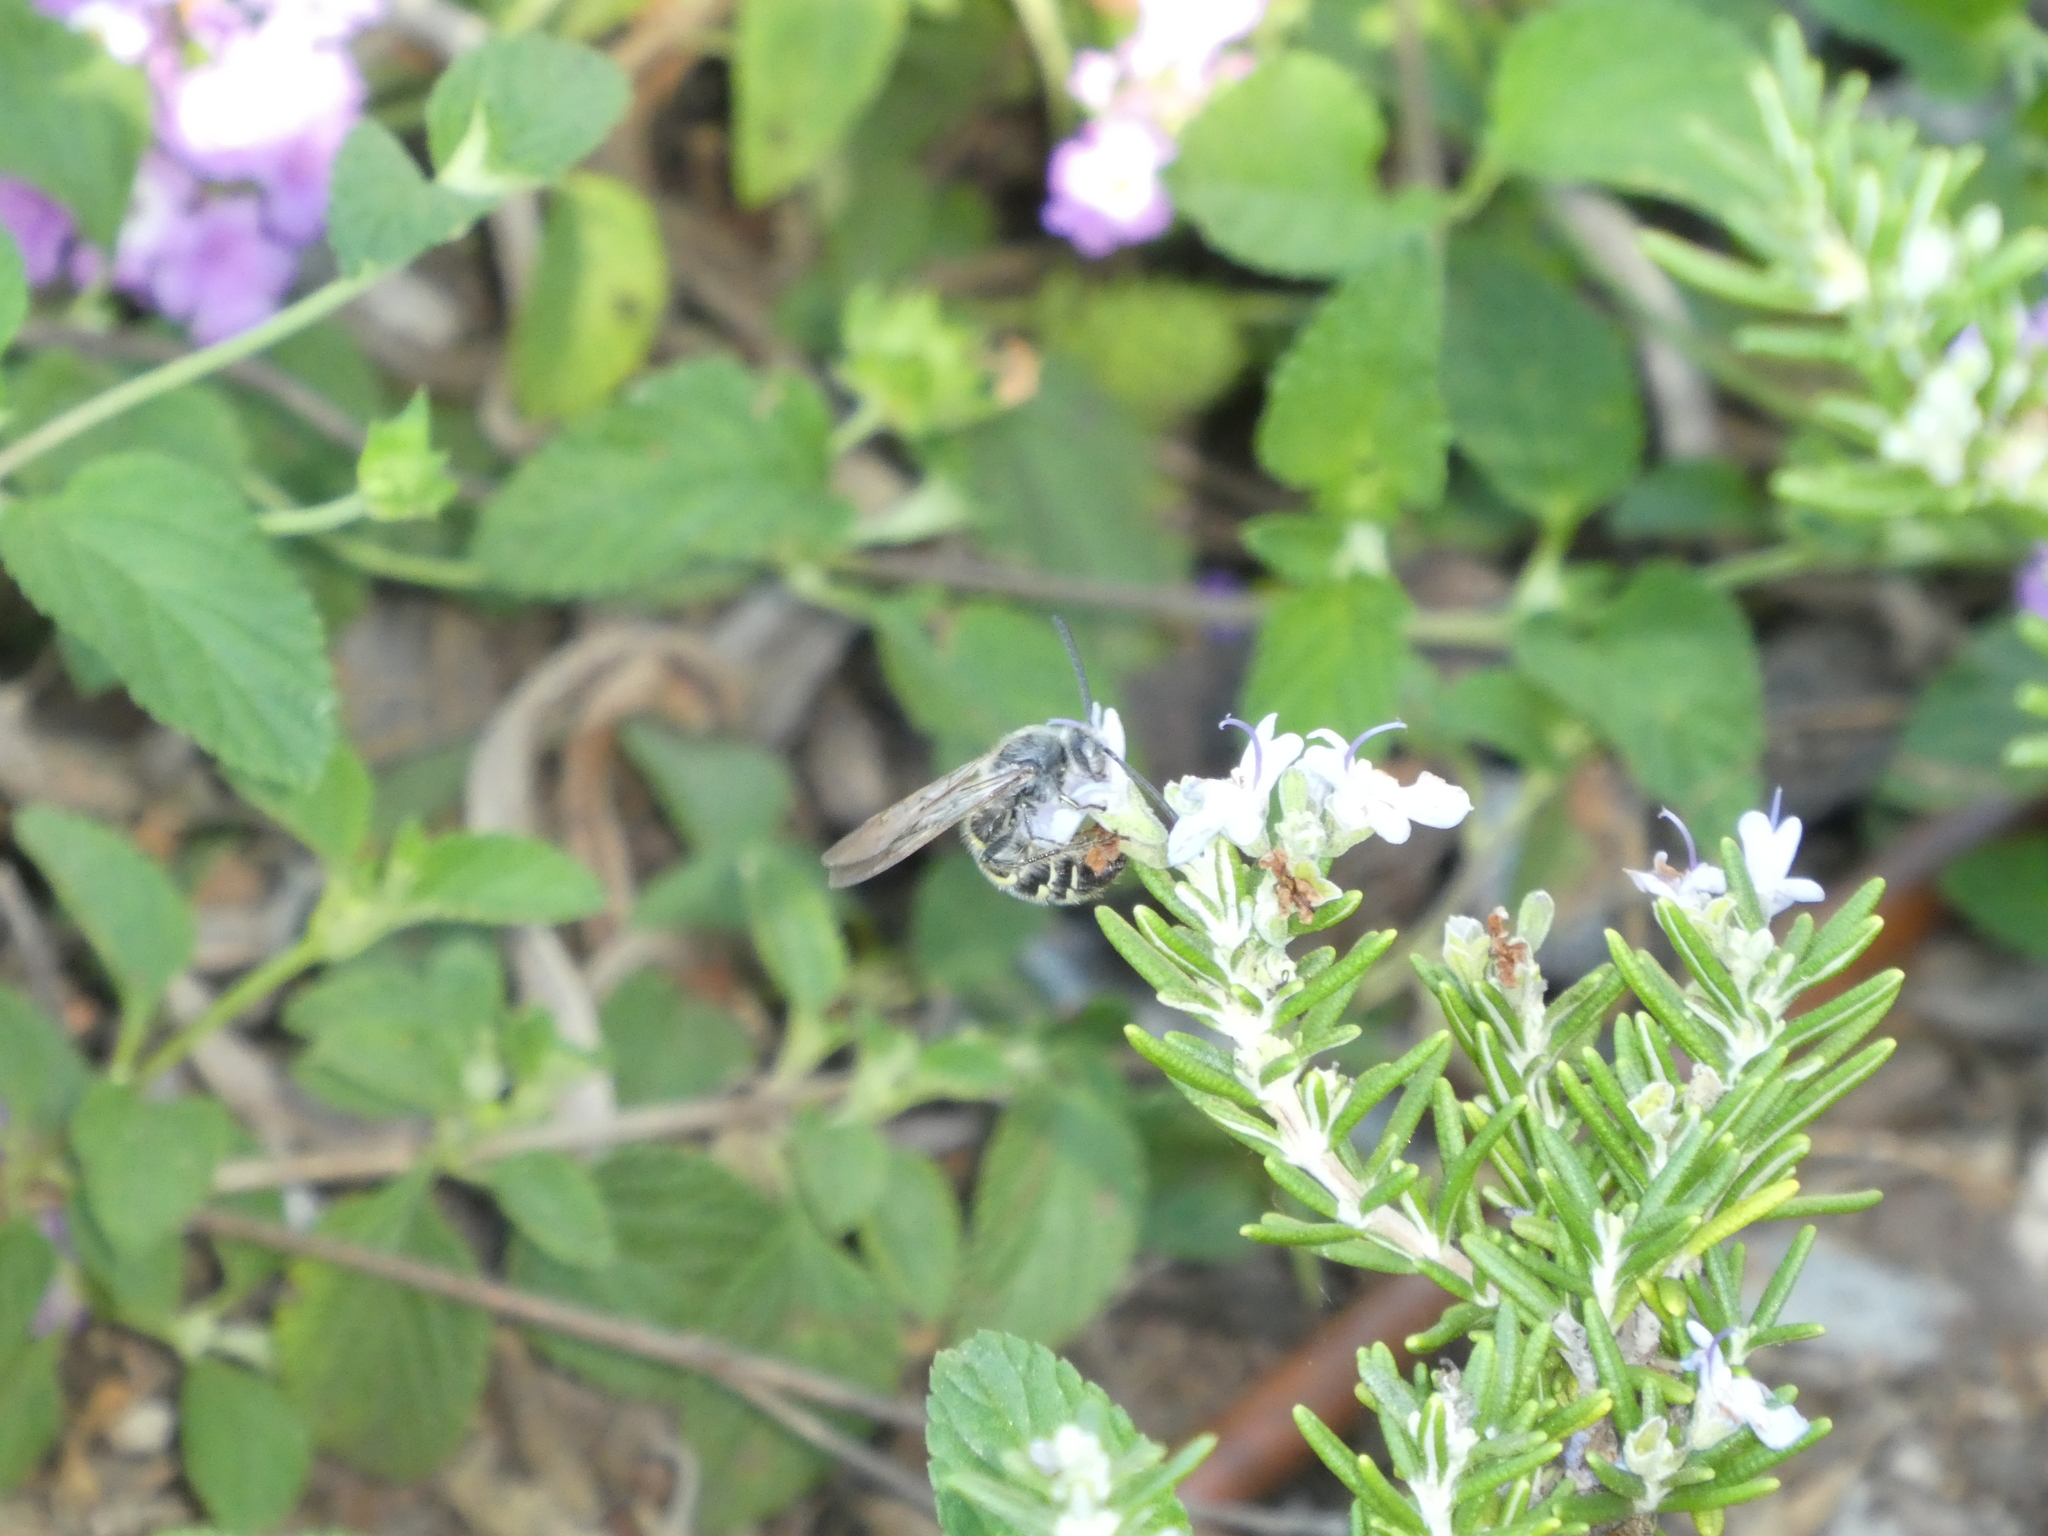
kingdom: Animalia
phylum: Arthropoda
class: Insecta
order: Hymenoptera
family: Scoliidae
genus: Dielis
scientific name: Dielis tolteca
